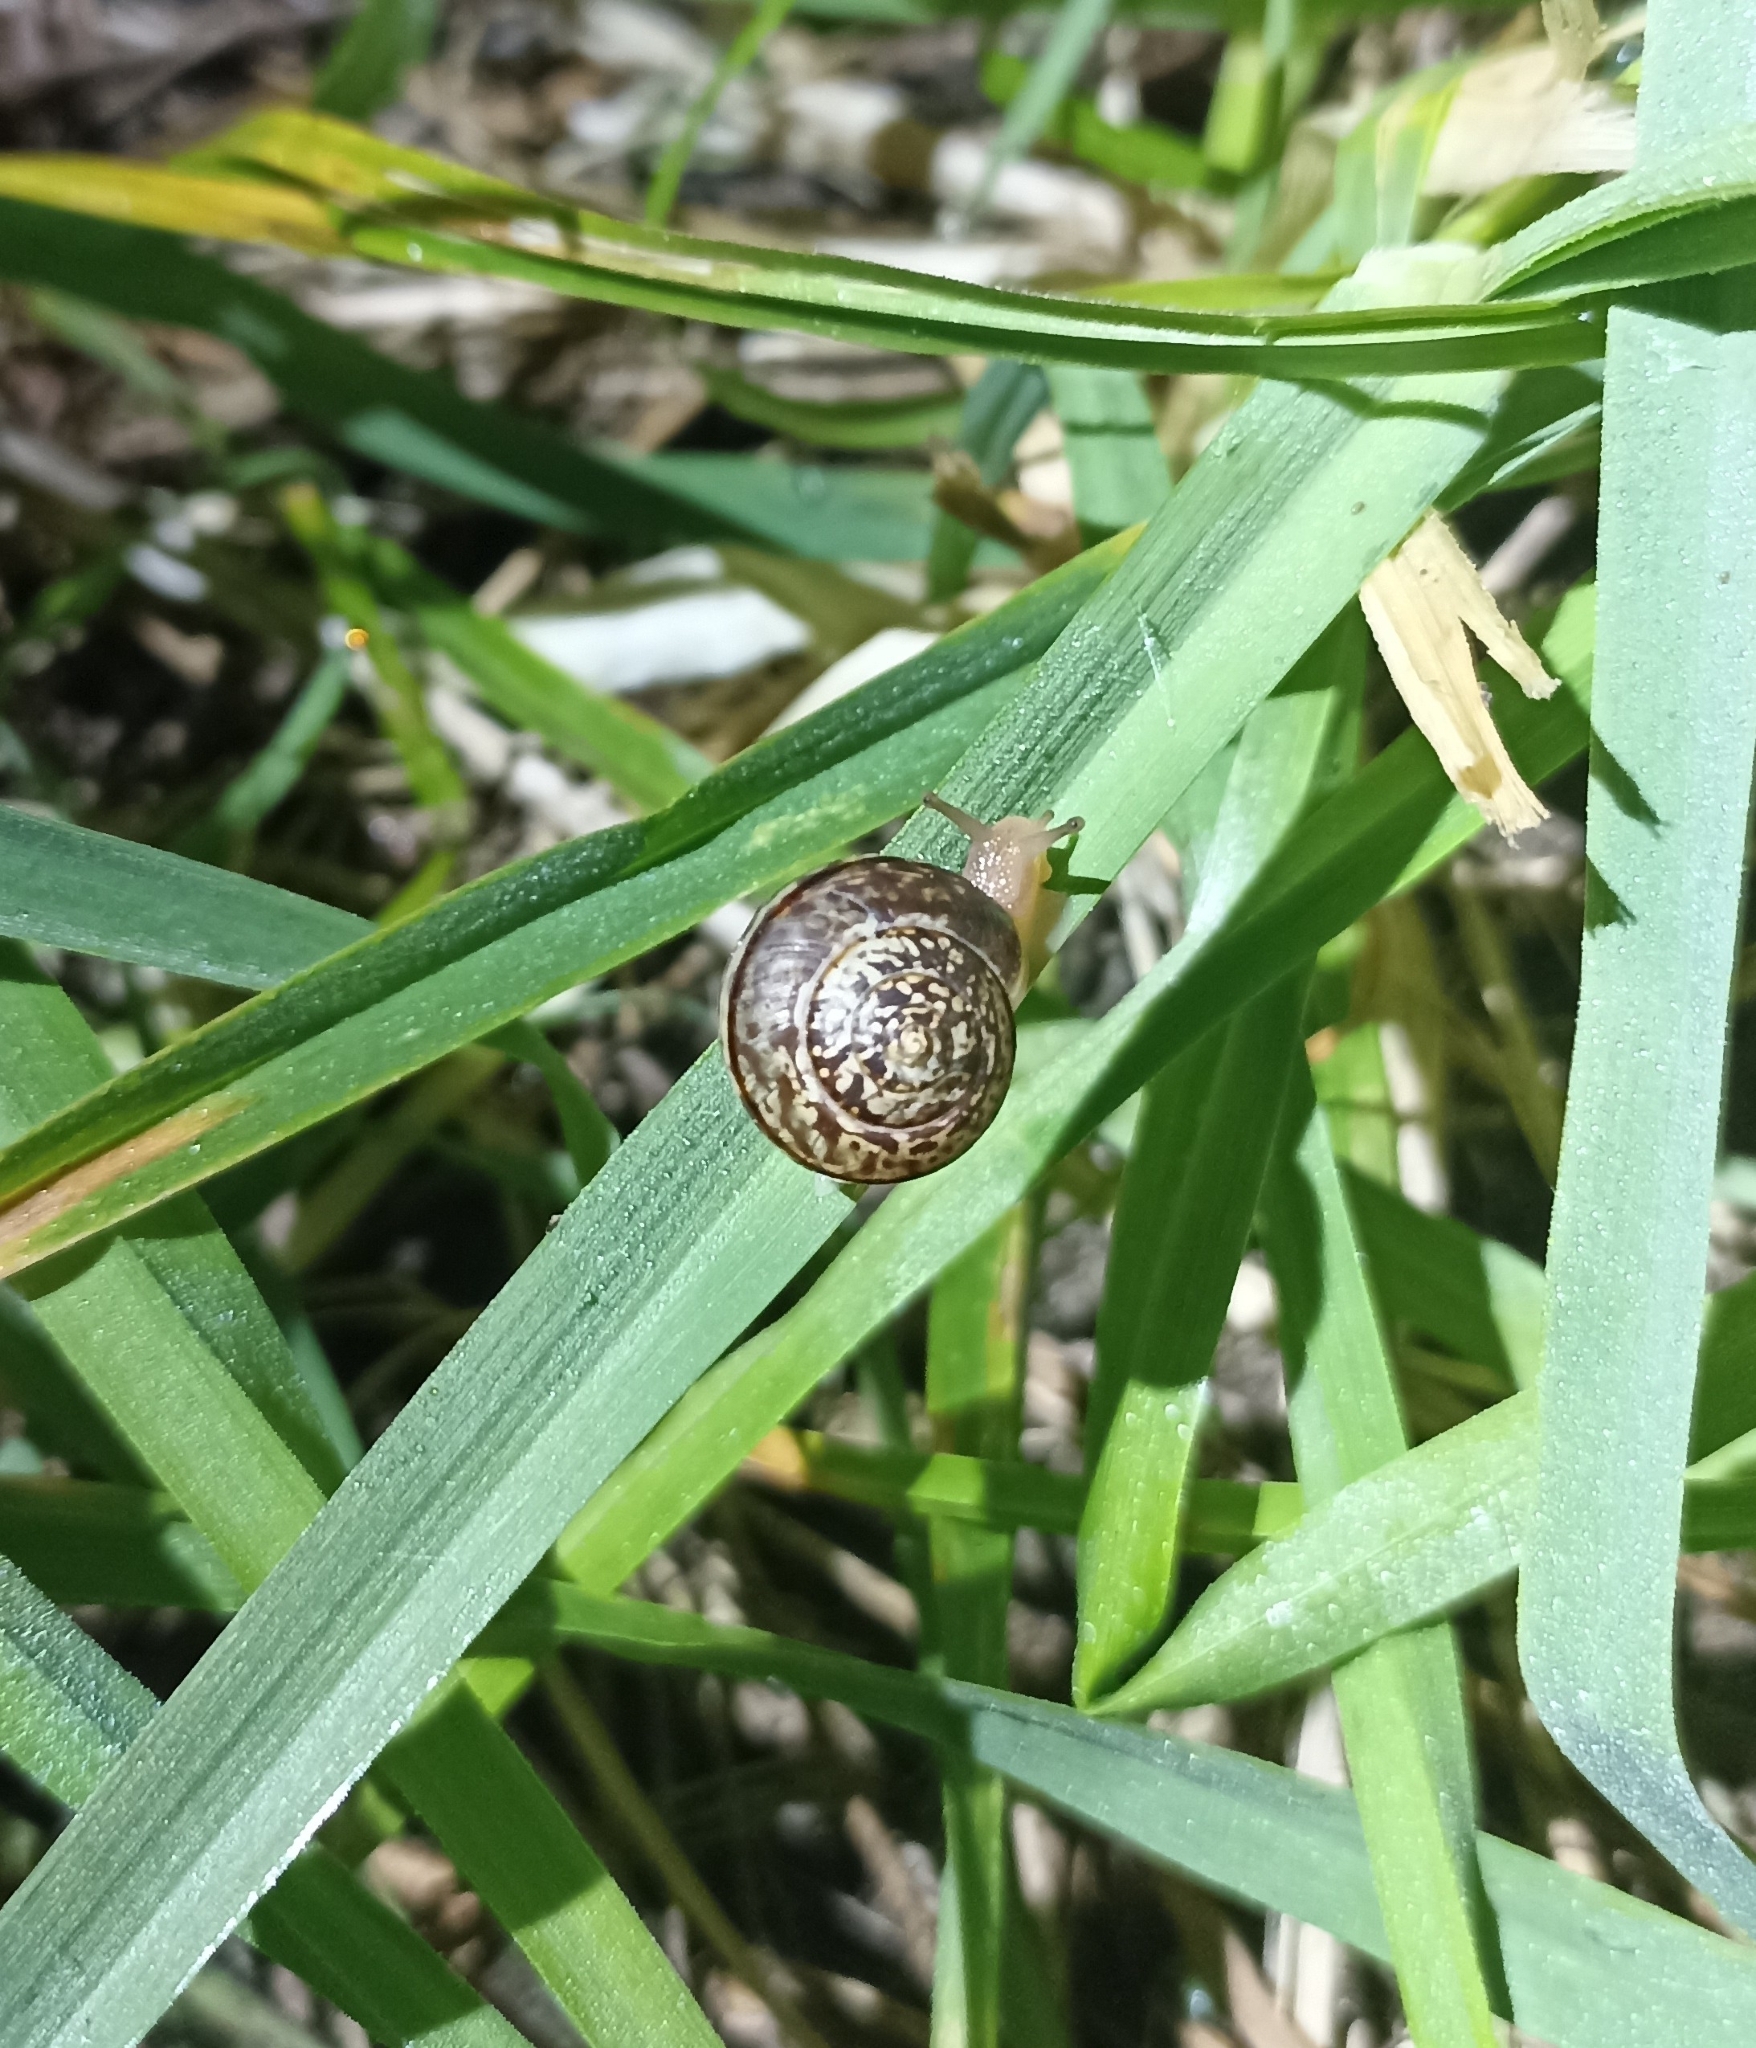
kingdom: Animalia
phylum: Mollusca
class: Gastropoda
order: Stylommatophora
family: Hygromiidae
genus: Portugala
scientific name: Portugala inchoata
